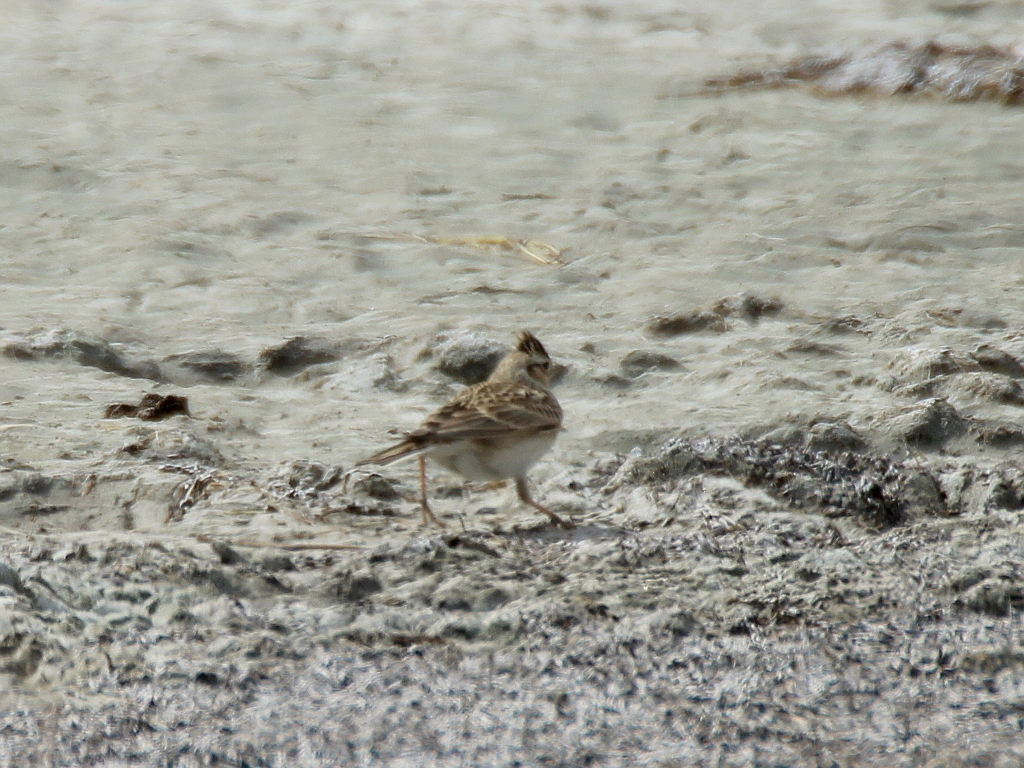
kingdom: Animalia
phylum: Chordata
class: Aves
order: Passeriformes
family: Alaudidae
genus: Alauda
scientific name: Alauda arvensis
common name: Eurasian skylark
